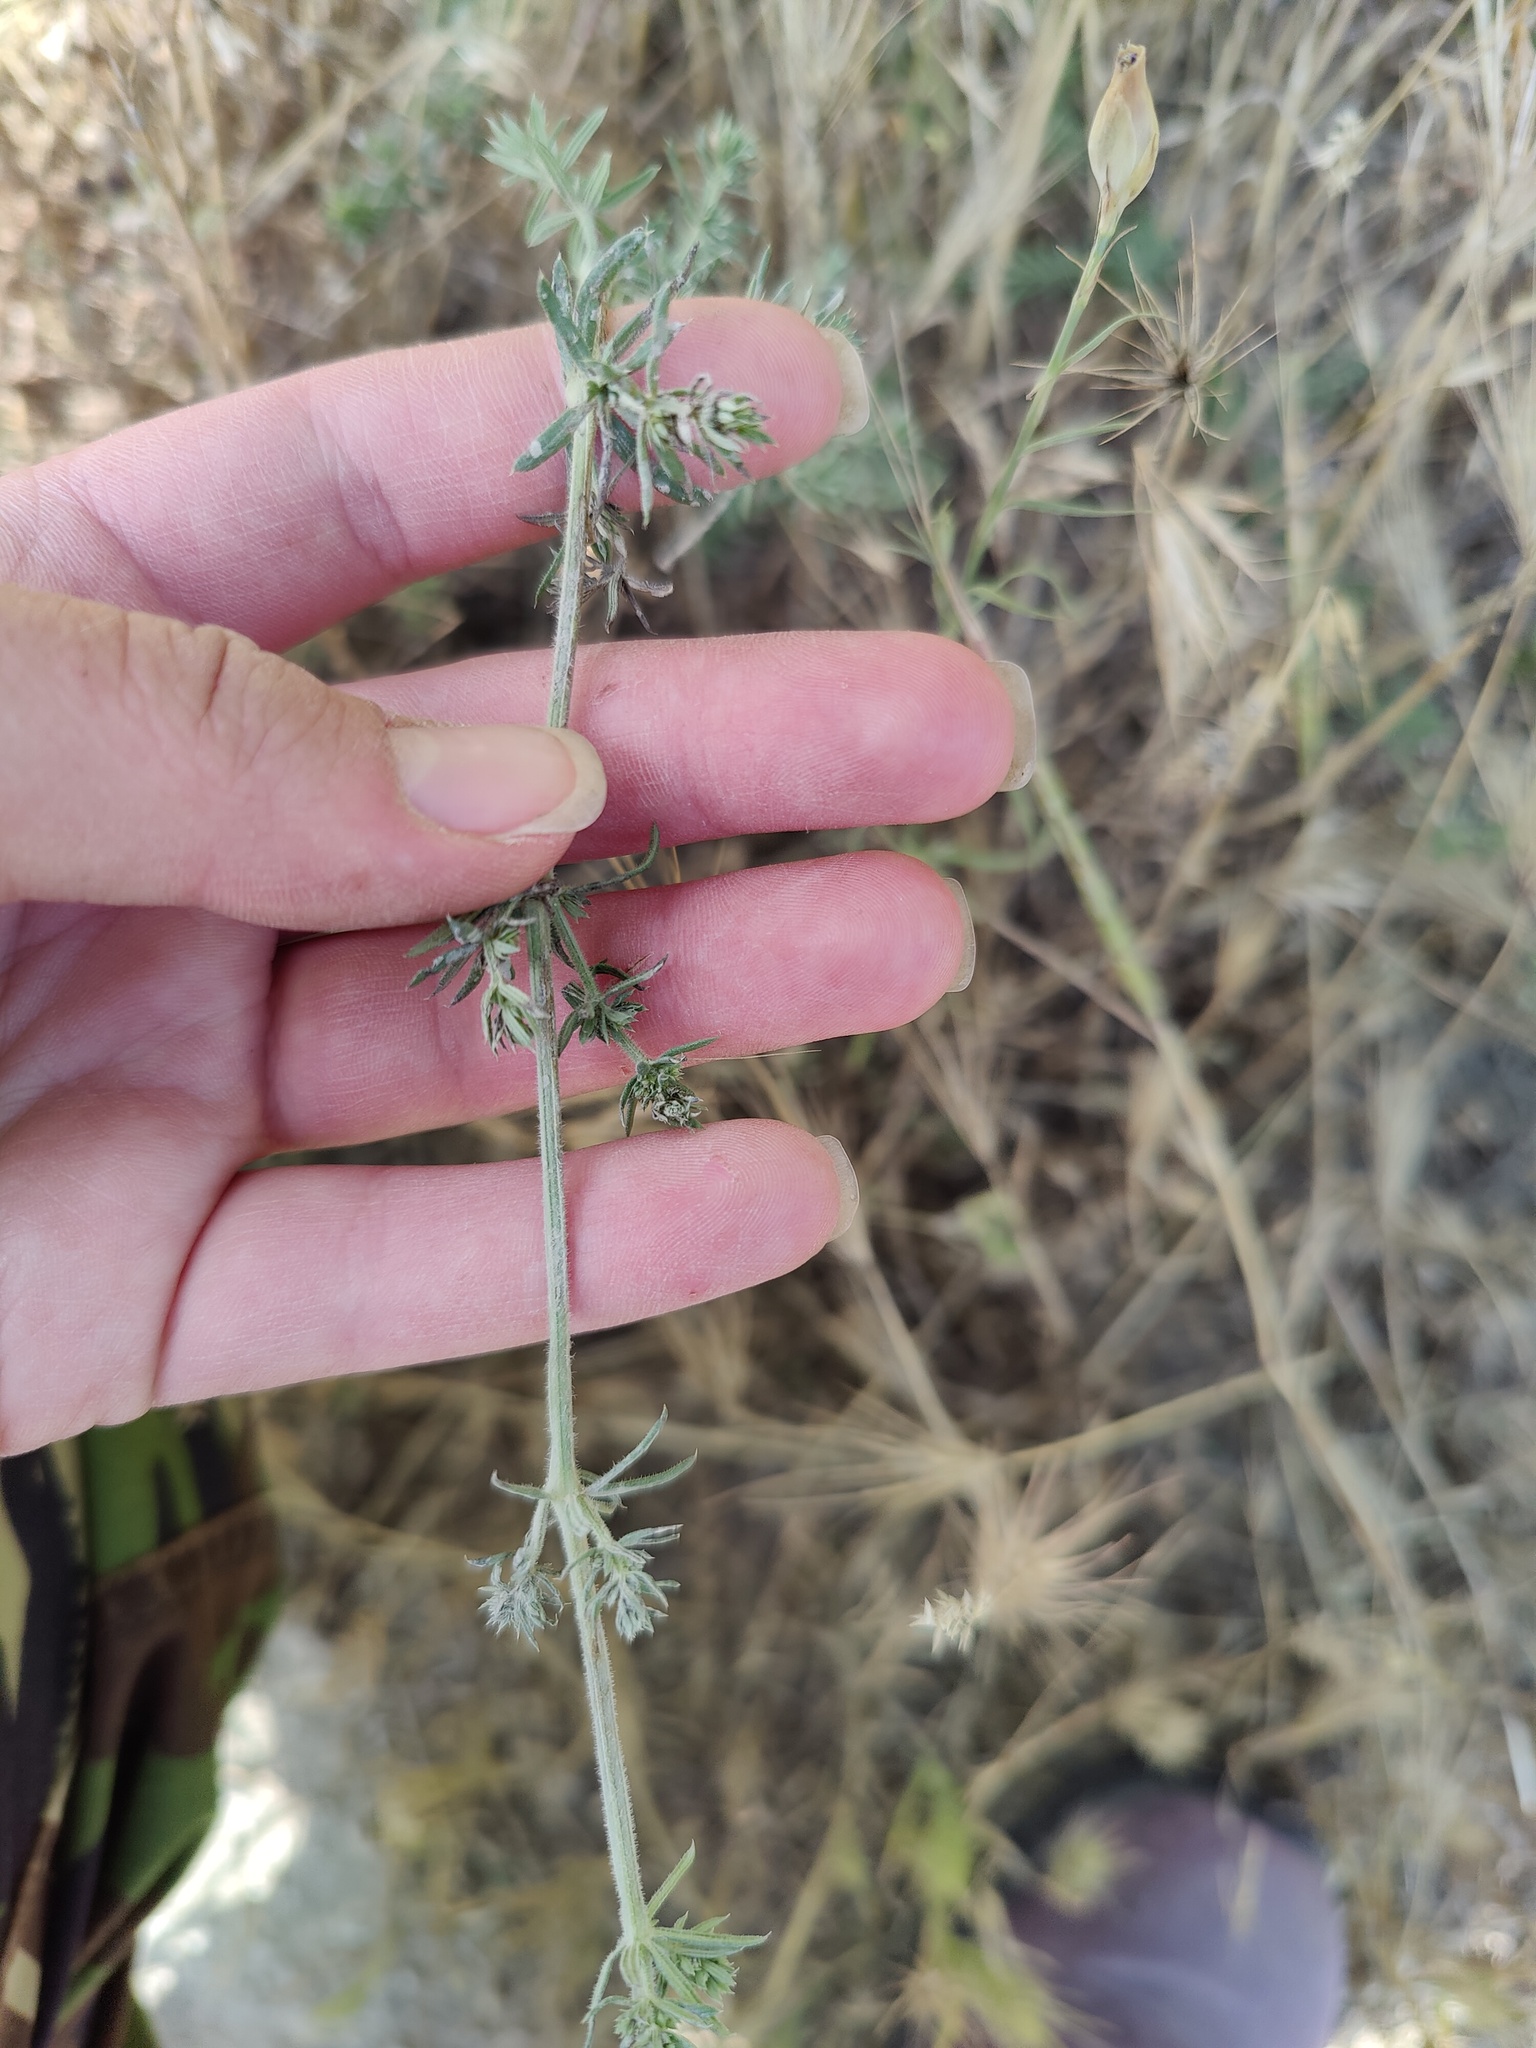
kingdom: Plantae
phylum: Tracheophyta
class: Magnoliopsida
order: Gentianales
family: Rubiaceae
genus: Galium
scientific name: Galium humifusum
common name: Spreading bedstraw
